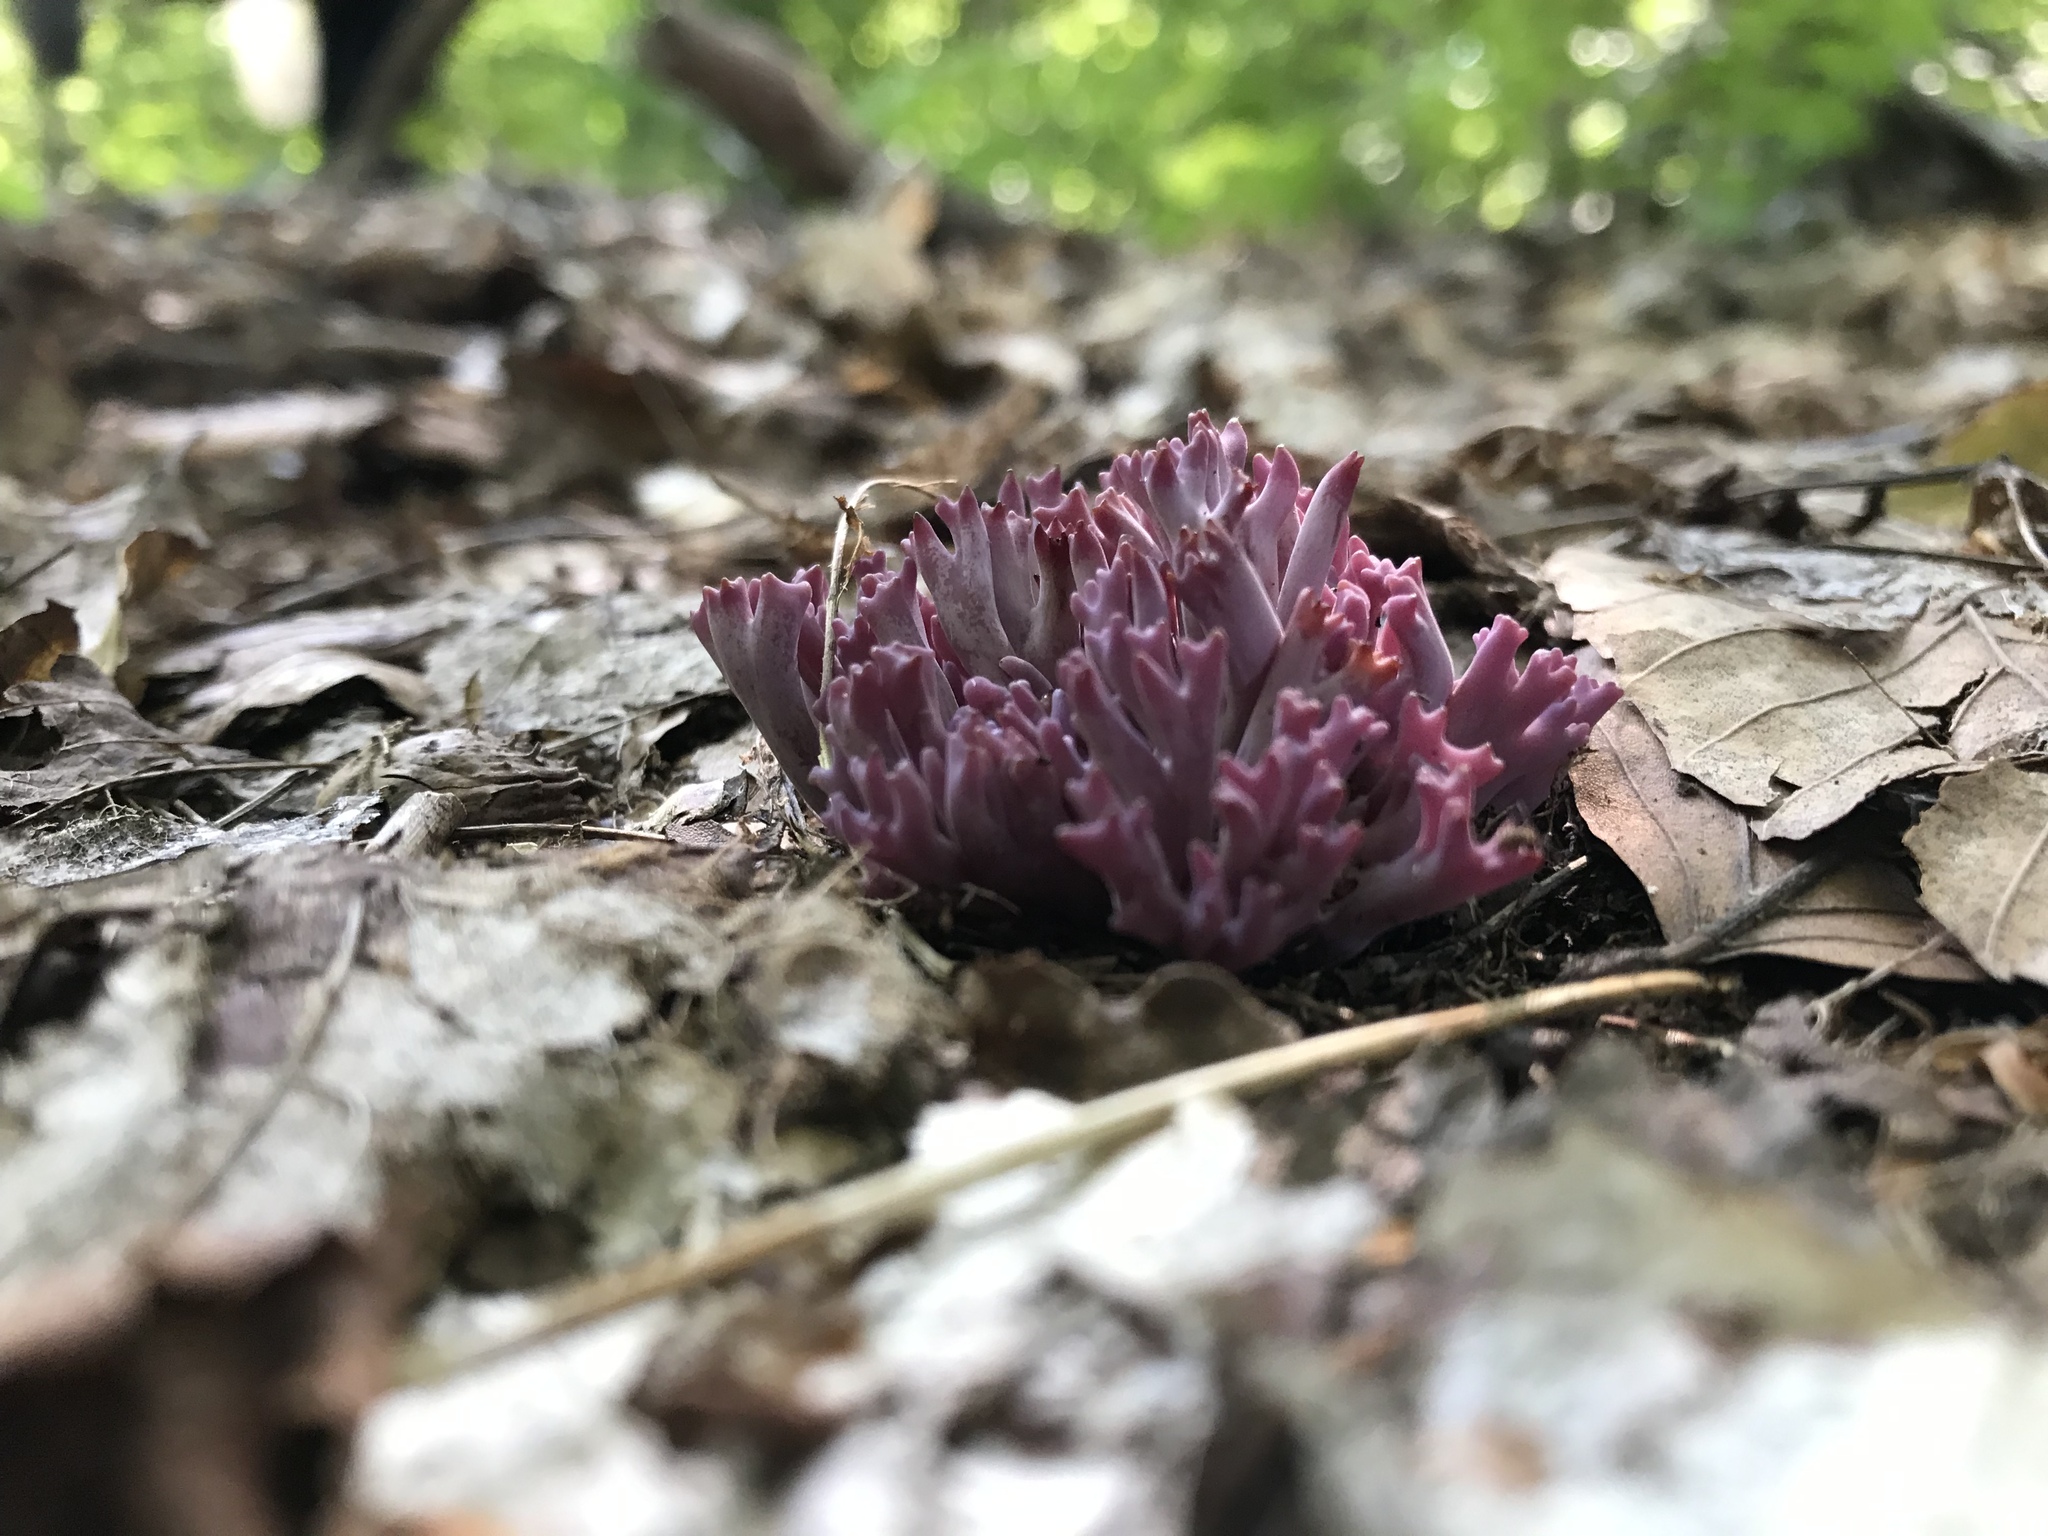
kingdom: Fungi
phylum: Basidiomycota
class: Agaricomycetes
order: Agaricales
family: Clavariaceae
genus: Clavaria
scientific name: Clavaria zollingeri
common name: Violet coral
